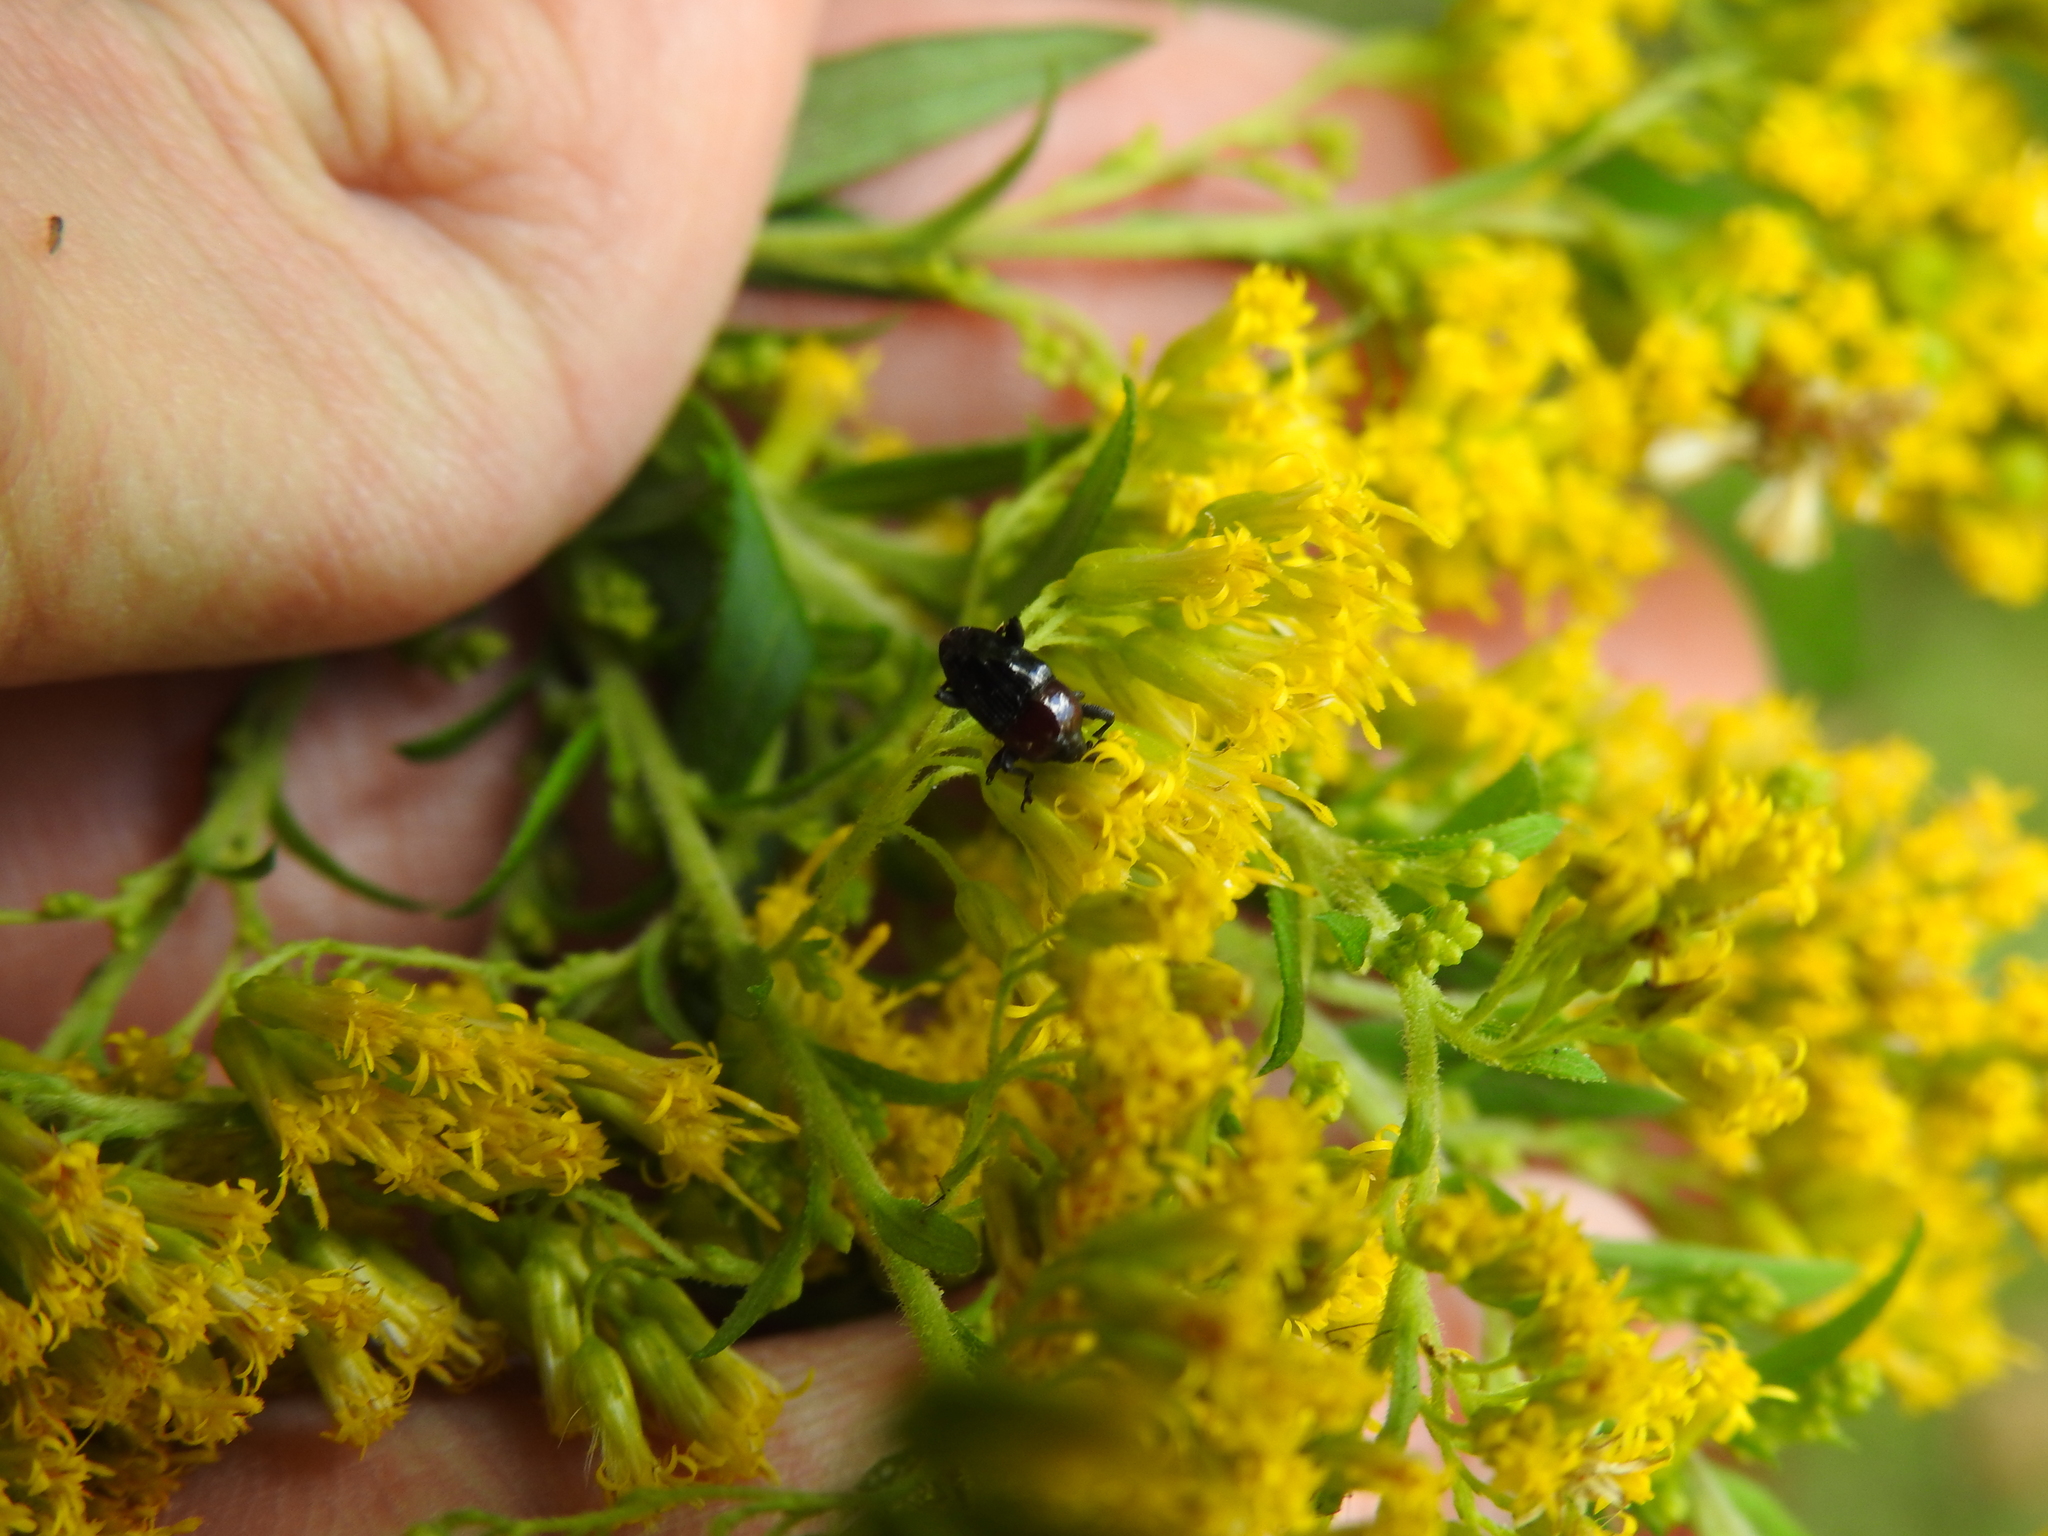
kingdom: Animalia
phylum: Arthropoda
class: Insecta
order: Coleoptera
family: Curculionidae
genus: Madarellus
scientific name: Madarellus undulatus
